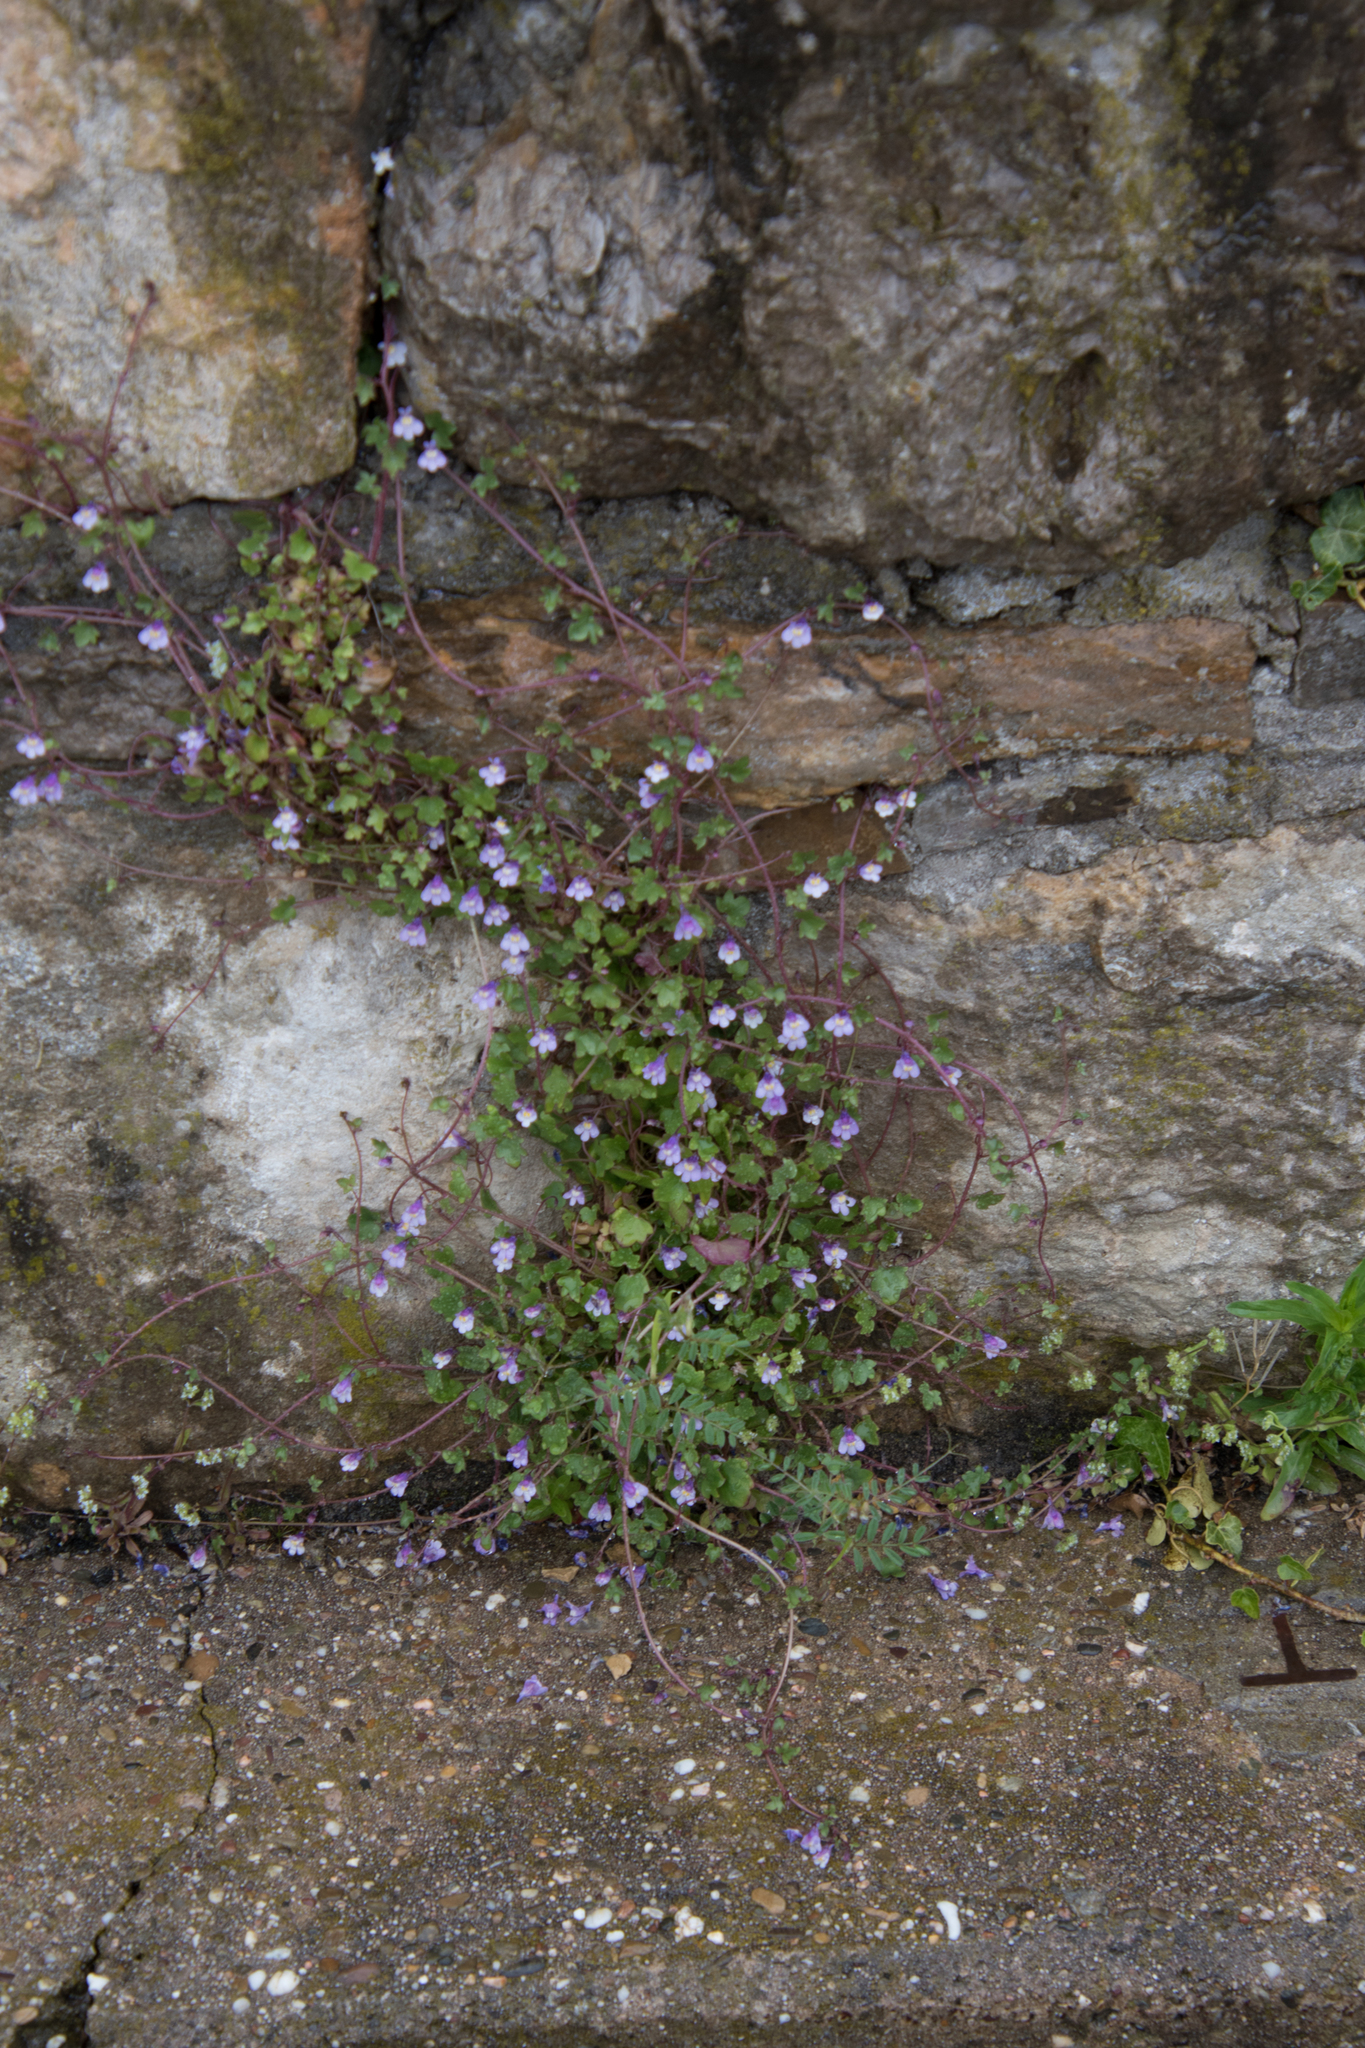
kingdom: Plantae
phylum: Tracheophyta
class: Magnoliopsida
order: Lamiales
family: Plantaginaceae
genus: Cymbalaria
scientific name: Cymbalaria muralis
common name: Ivy-leaved toadflax
